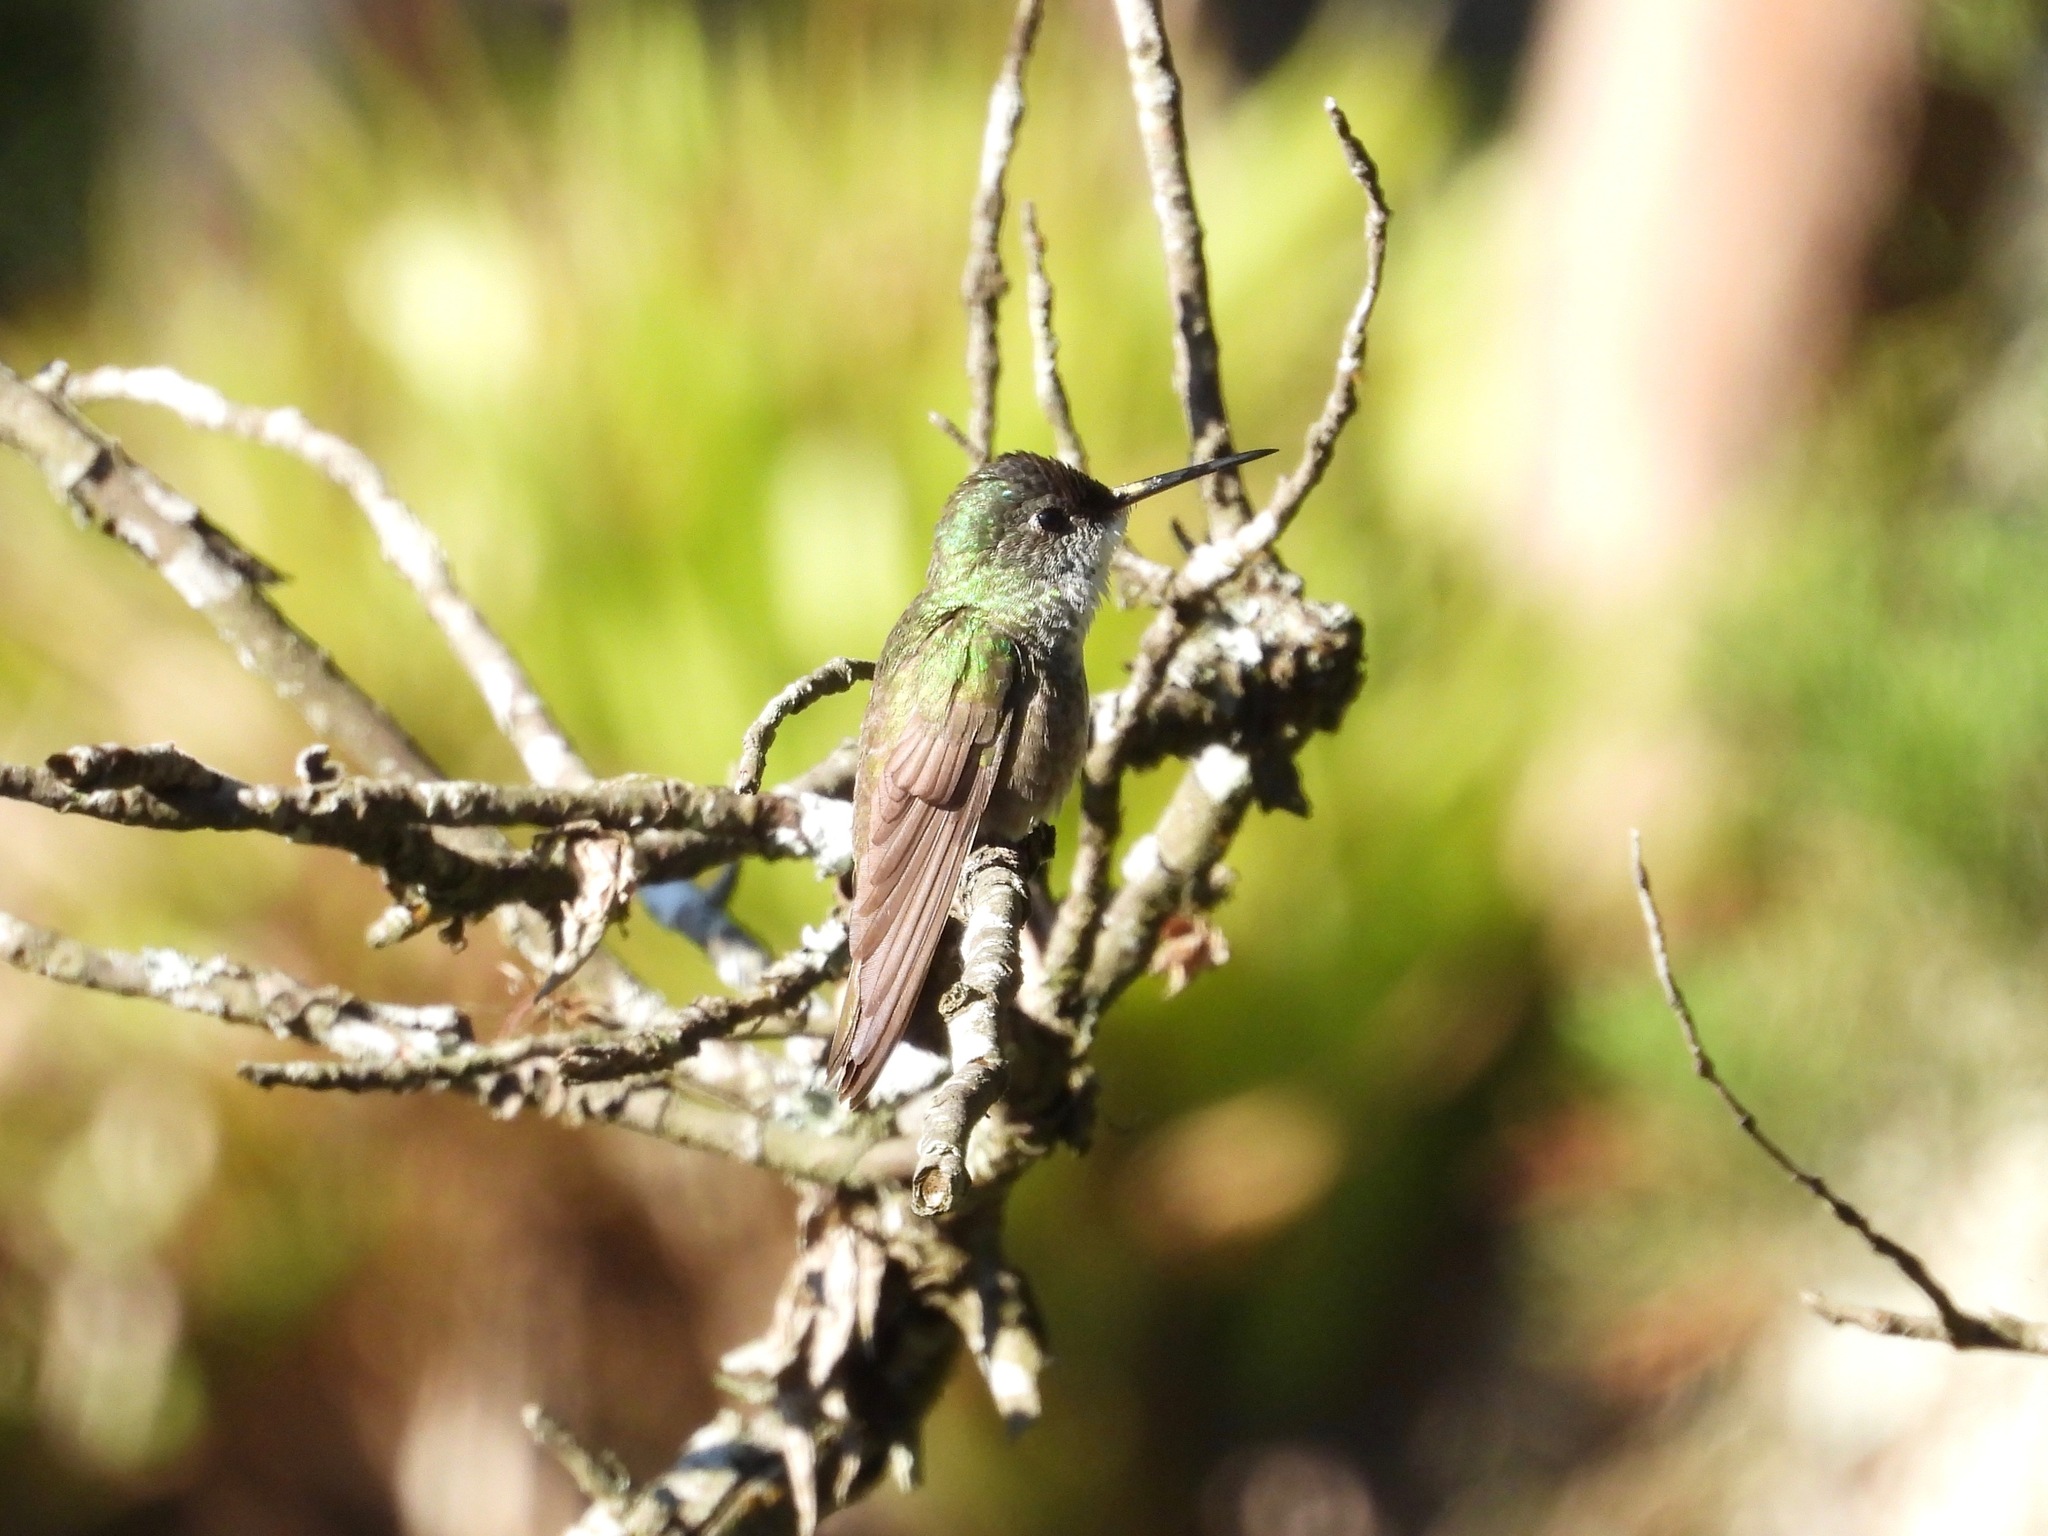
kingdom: Animalia
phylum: Chordata
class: Aves
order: Apodiformes
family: Trochilidae
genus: Saucerottia
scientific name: Saucerottia cyanocephala
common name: Azure-crowned hummingbird
